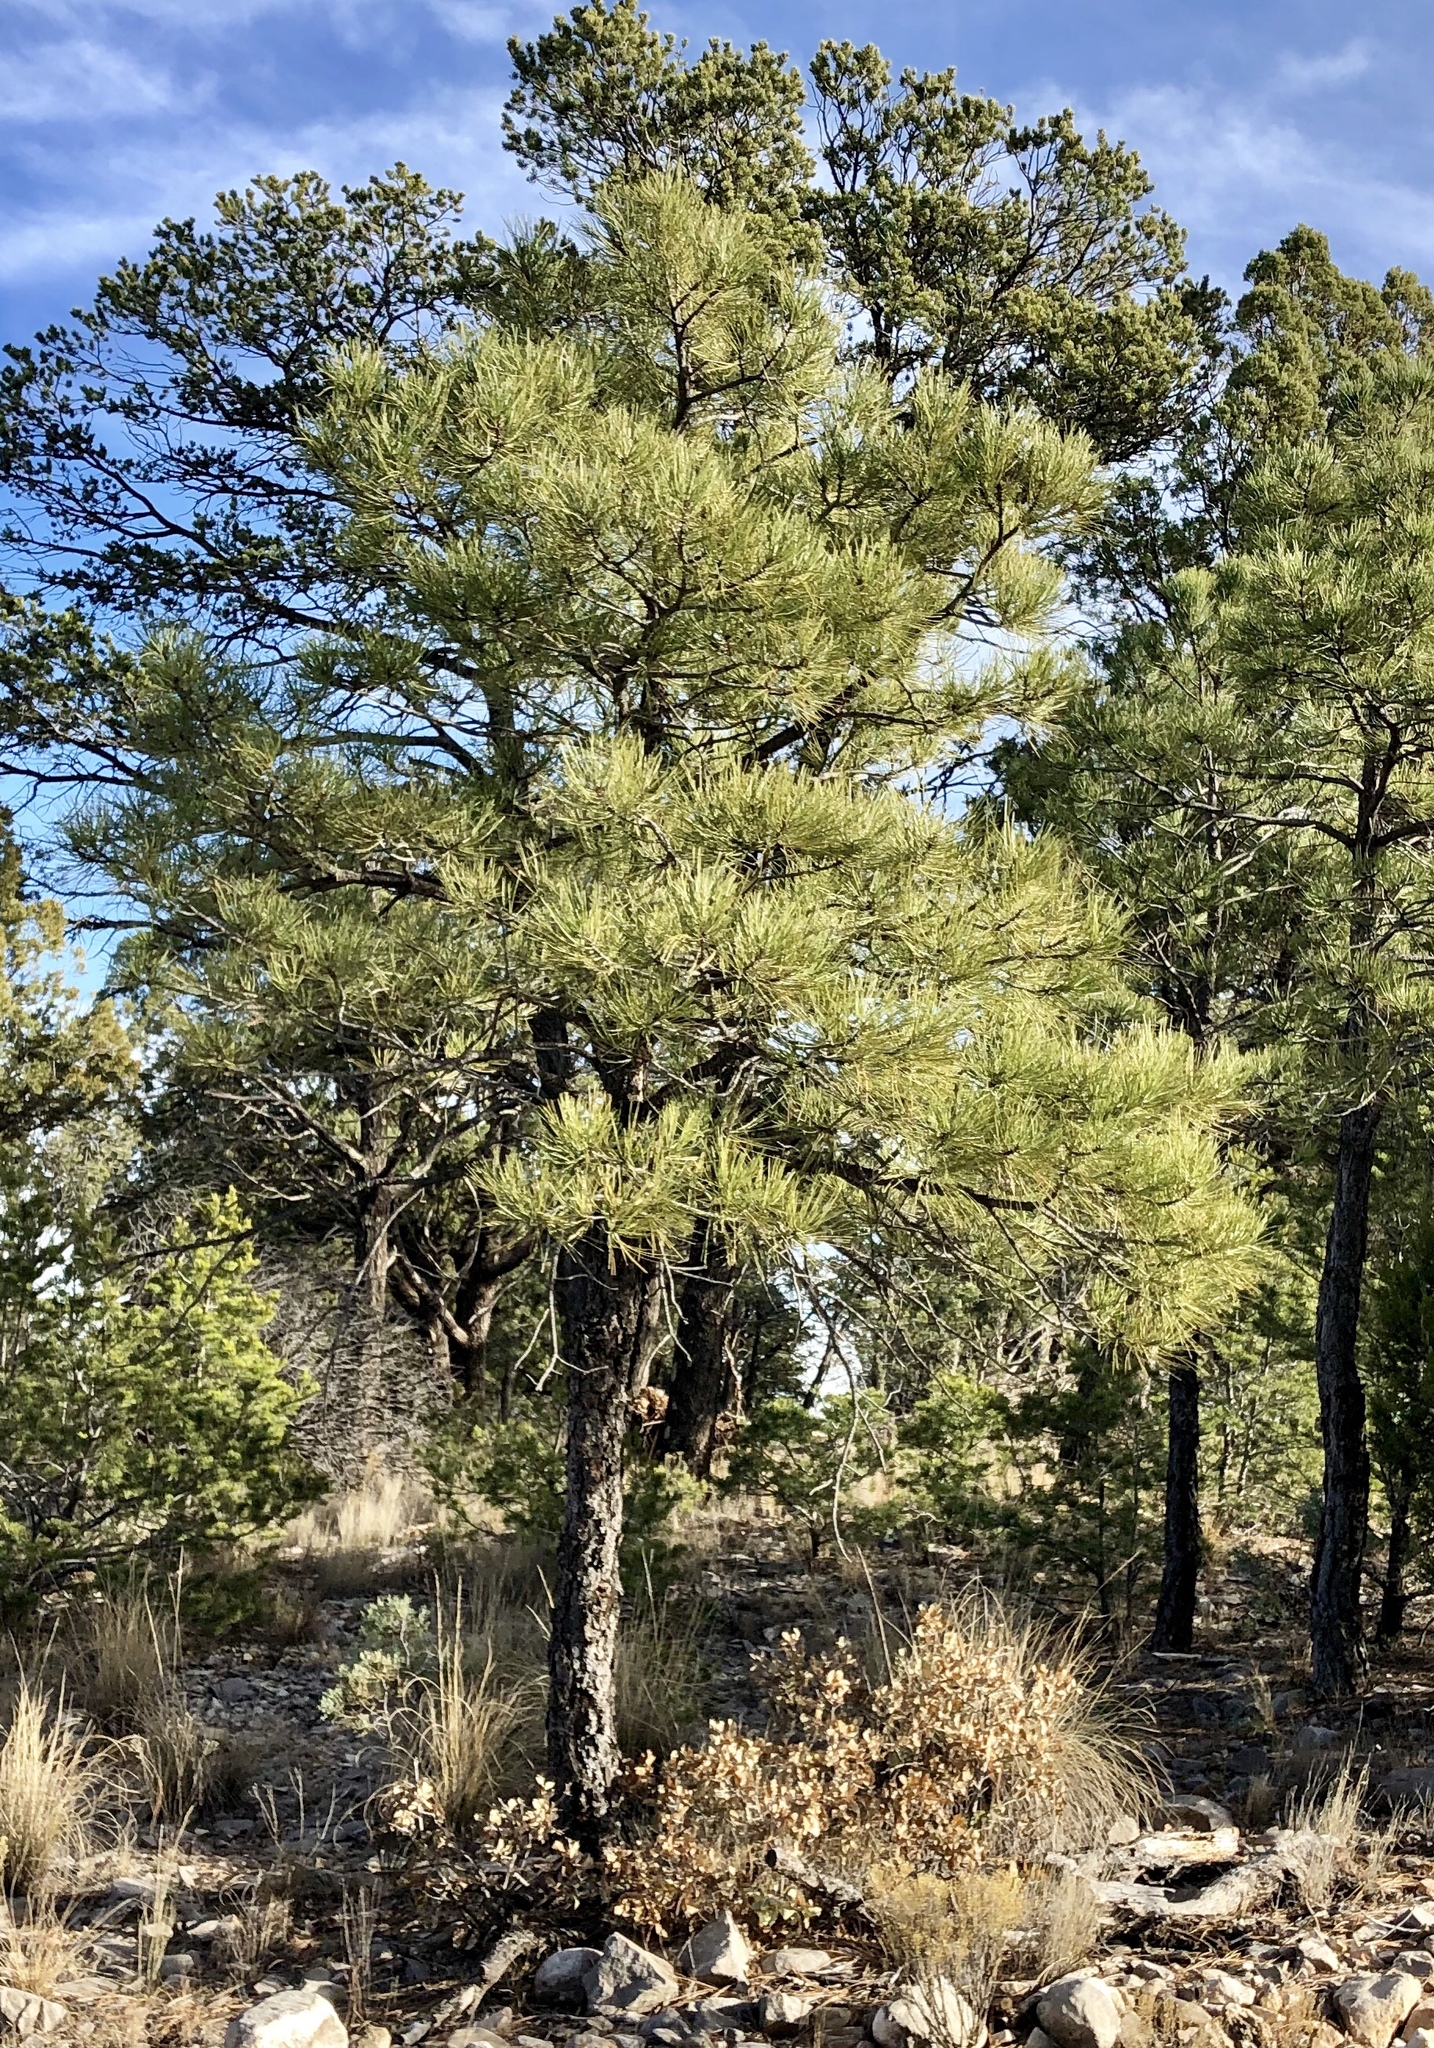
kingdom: Plantae
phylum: Tracheophyta
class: Pinopsida
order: Pinales
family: Pinaceae
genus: Pinus
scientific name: Pinus ponderosa
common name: Western yellow-pine
